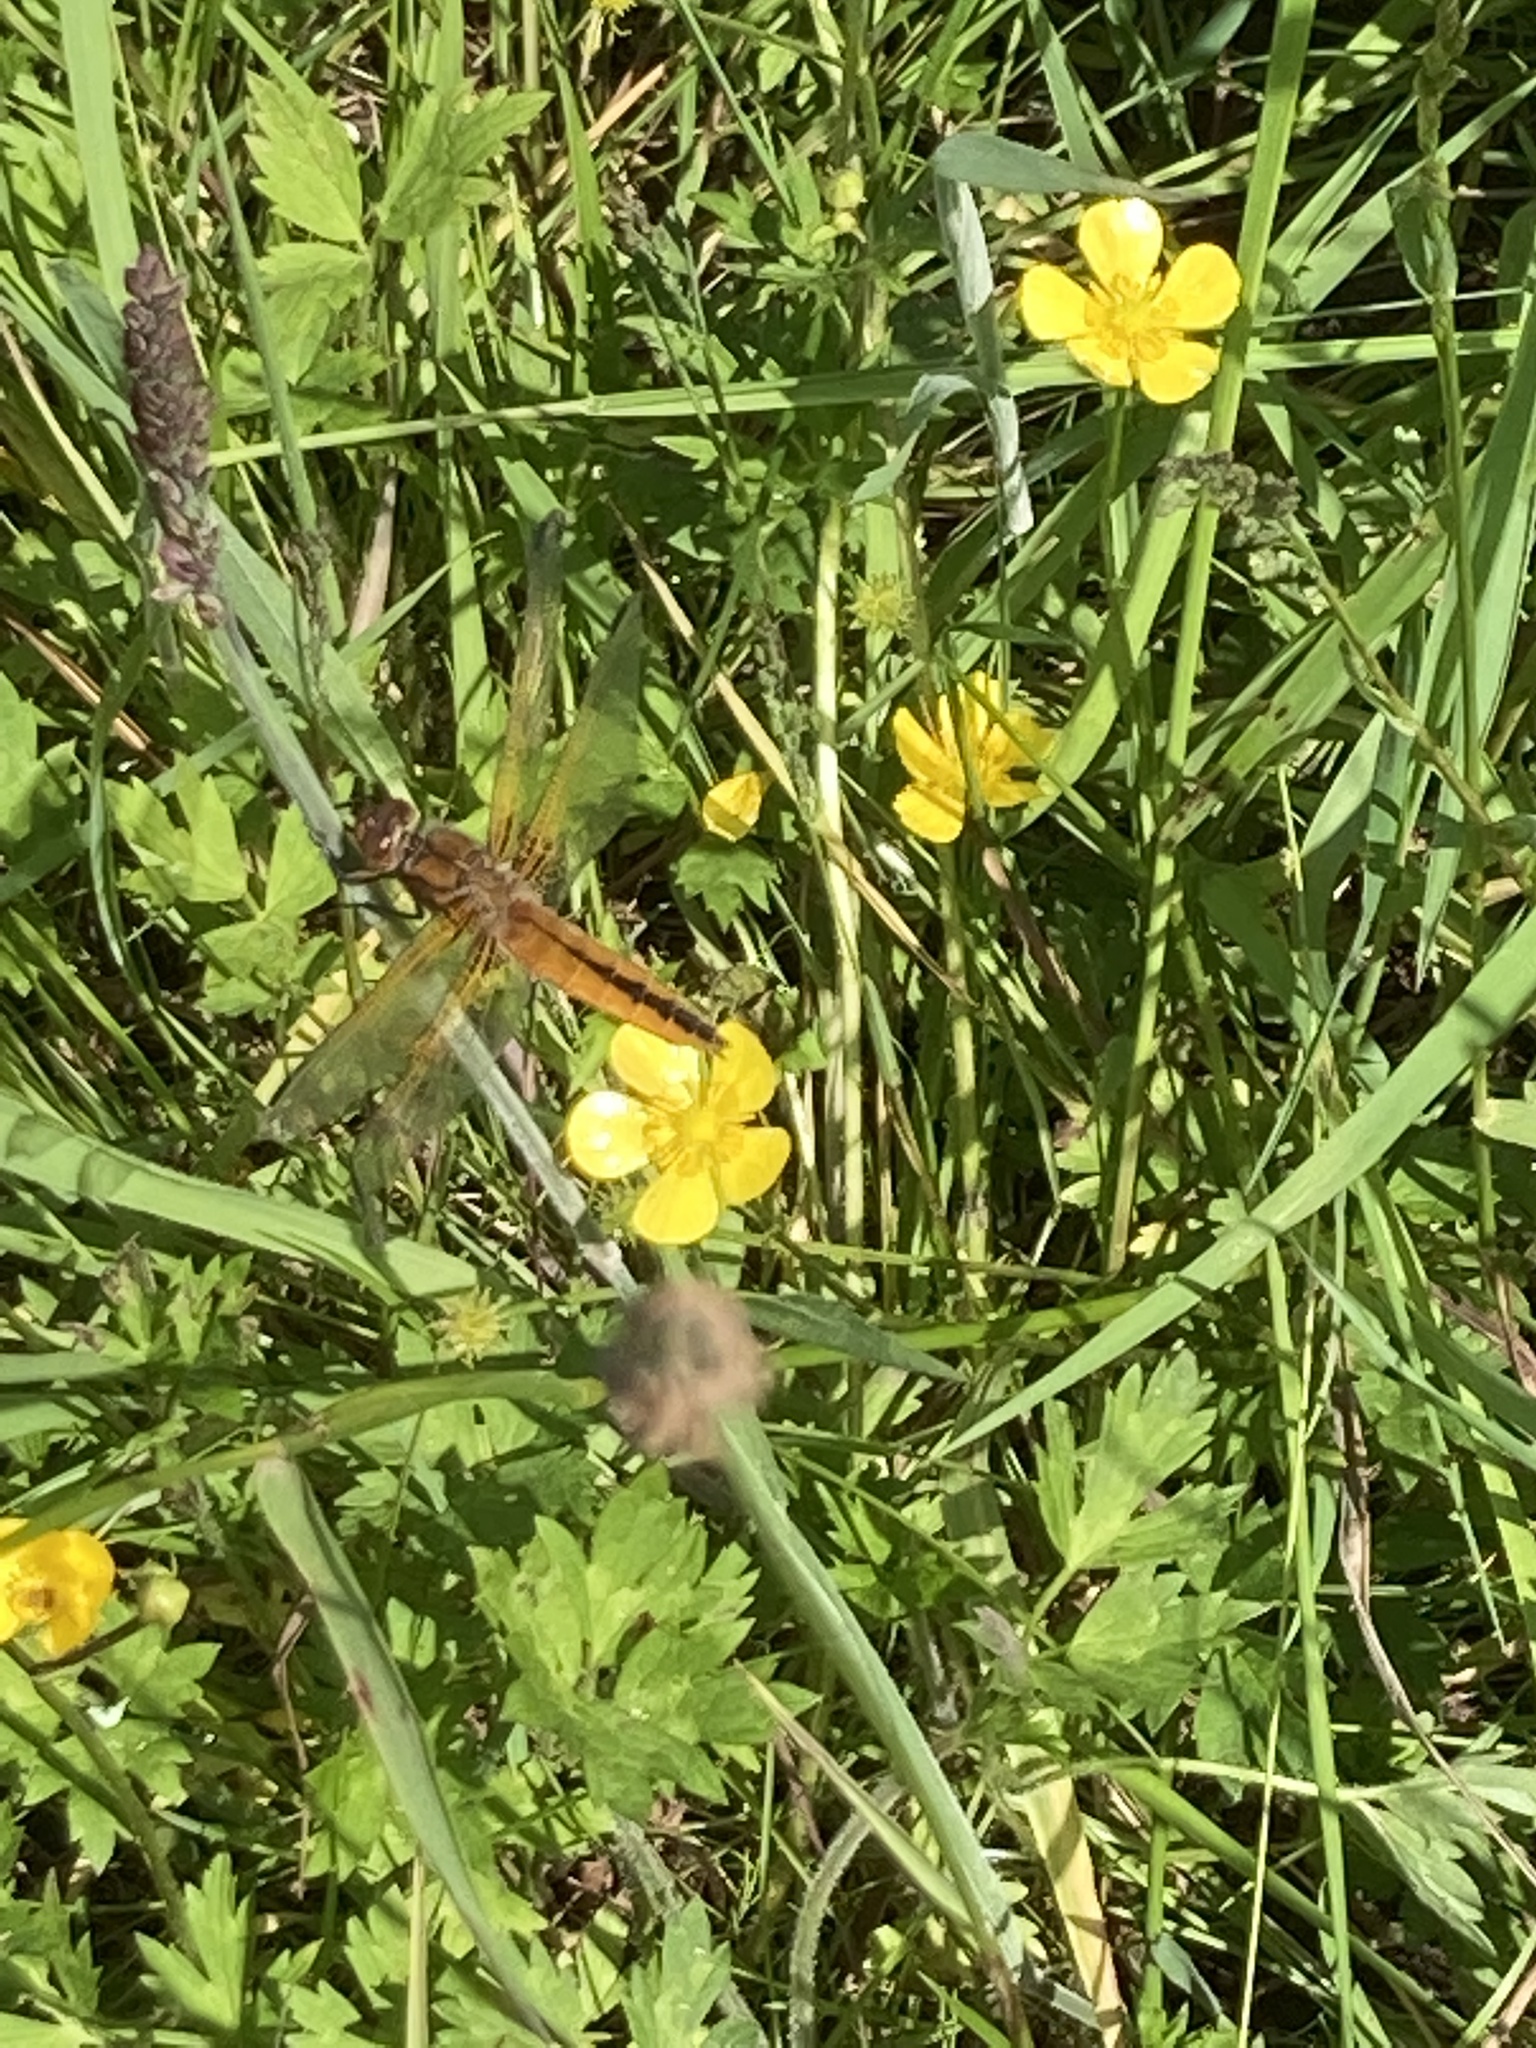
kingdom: Animalia
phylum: Arthropoda
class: Insecta
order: Odonata
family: Libellulidae
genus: Libellula
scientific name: Libellula fulva
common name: Blue chaser
